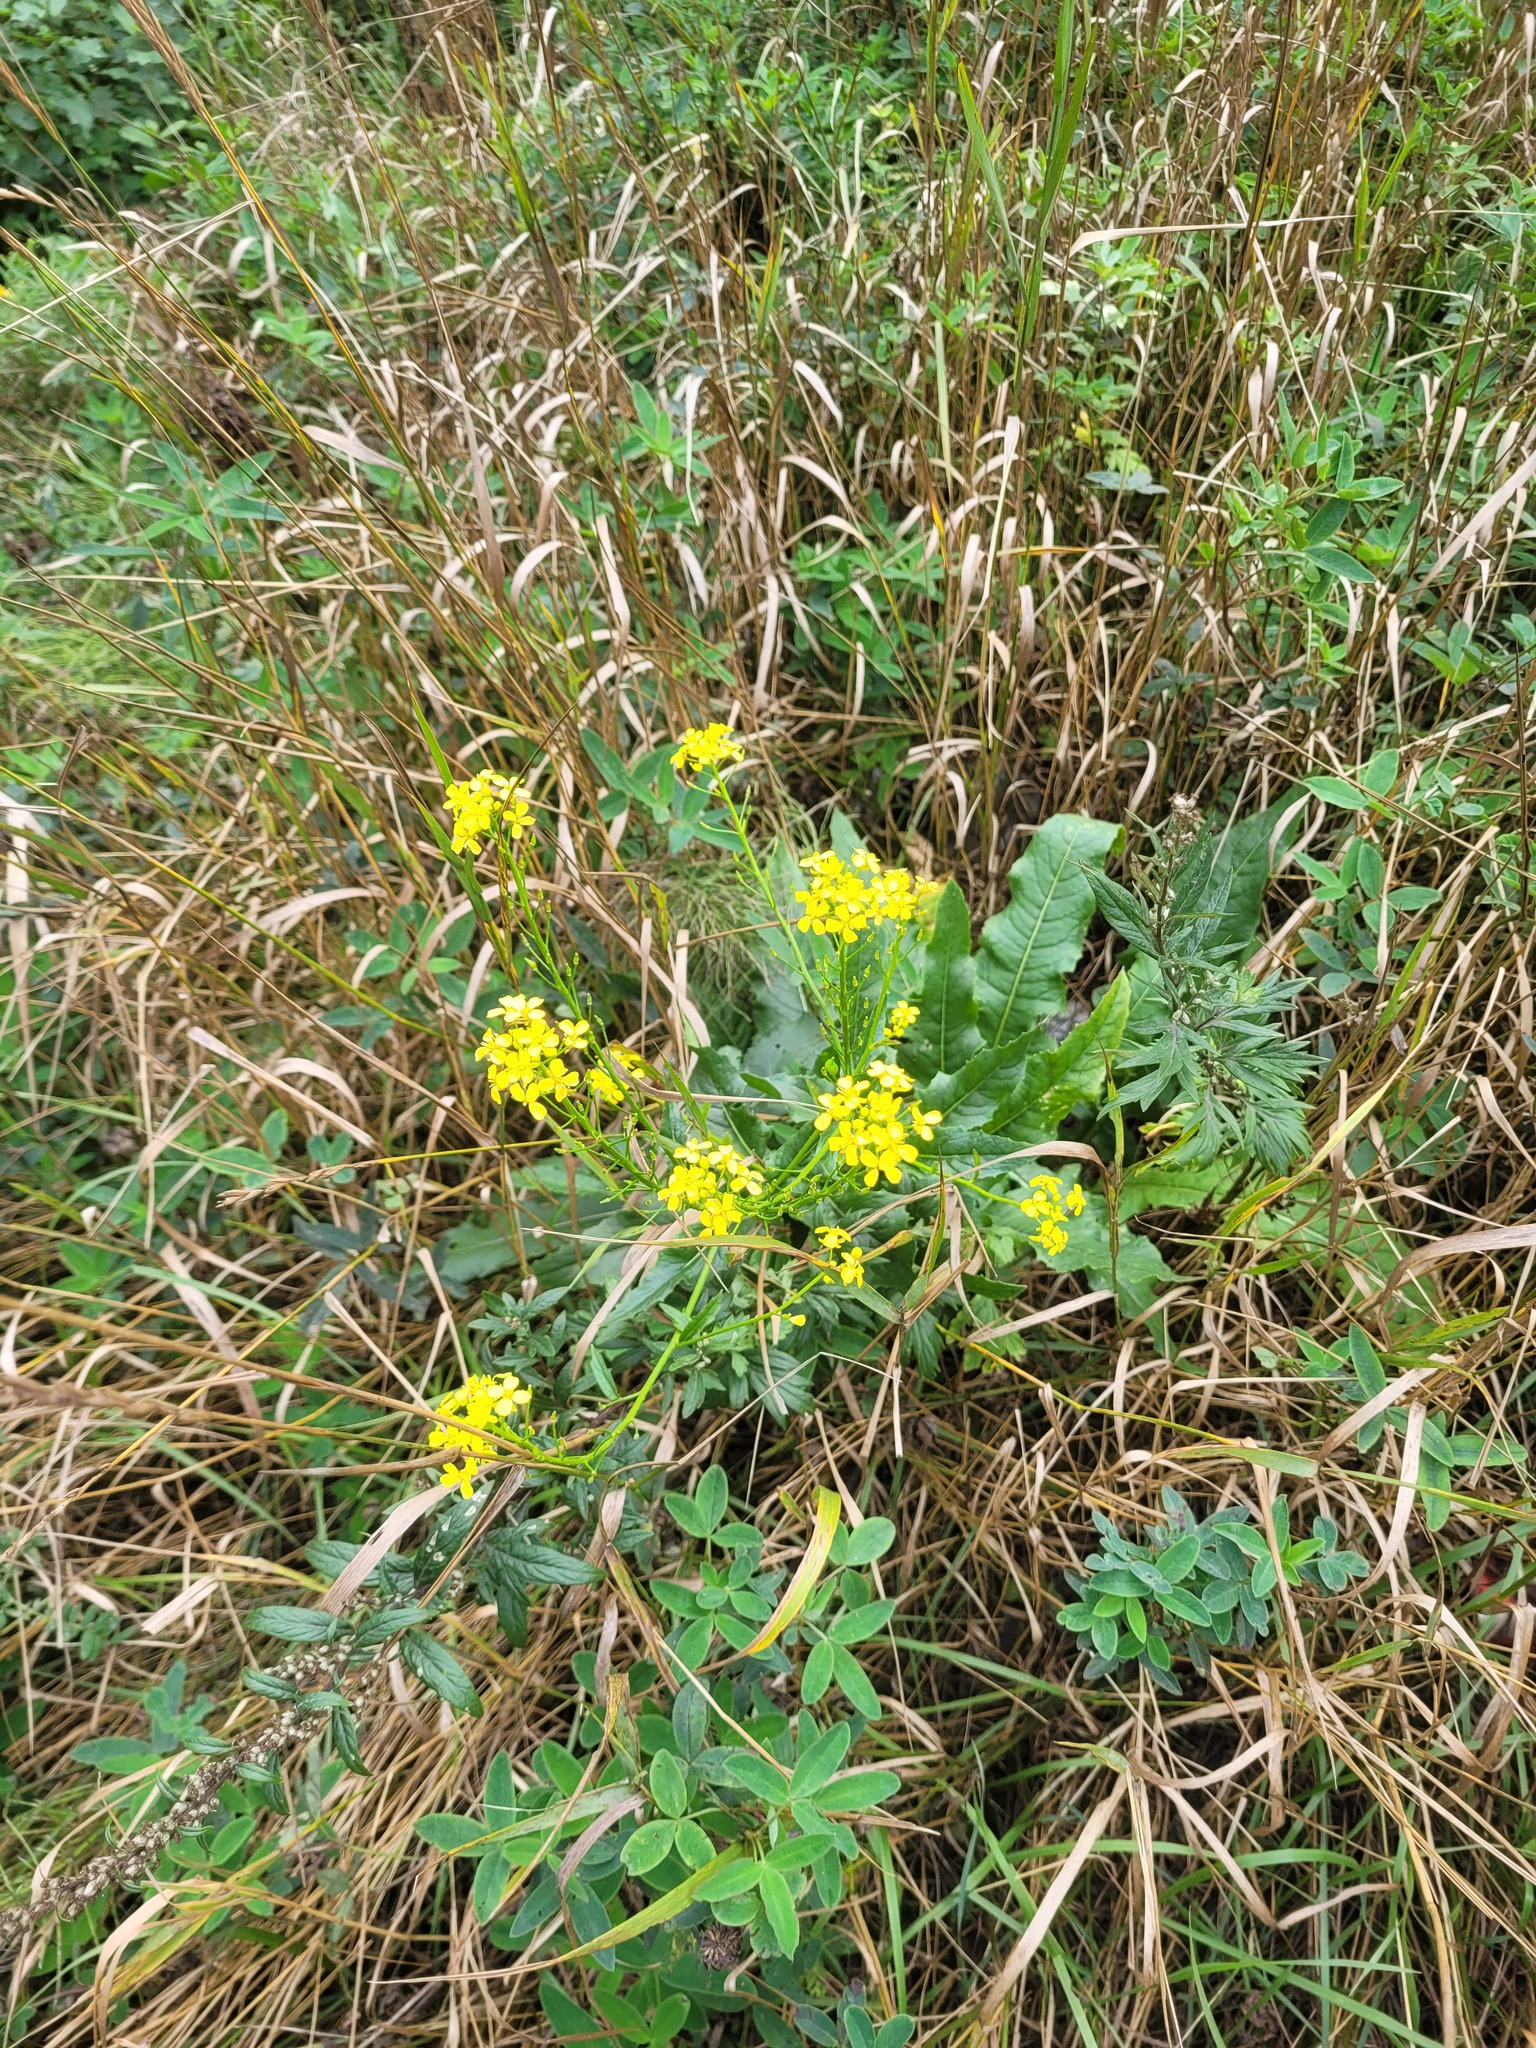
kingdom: Plantae
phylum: Tracheophyta
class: Magnoliopsida
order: Brassicales
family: Brassicaceae
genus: Bunias
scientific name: Bunias orientalis
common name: Warty-cabbage
